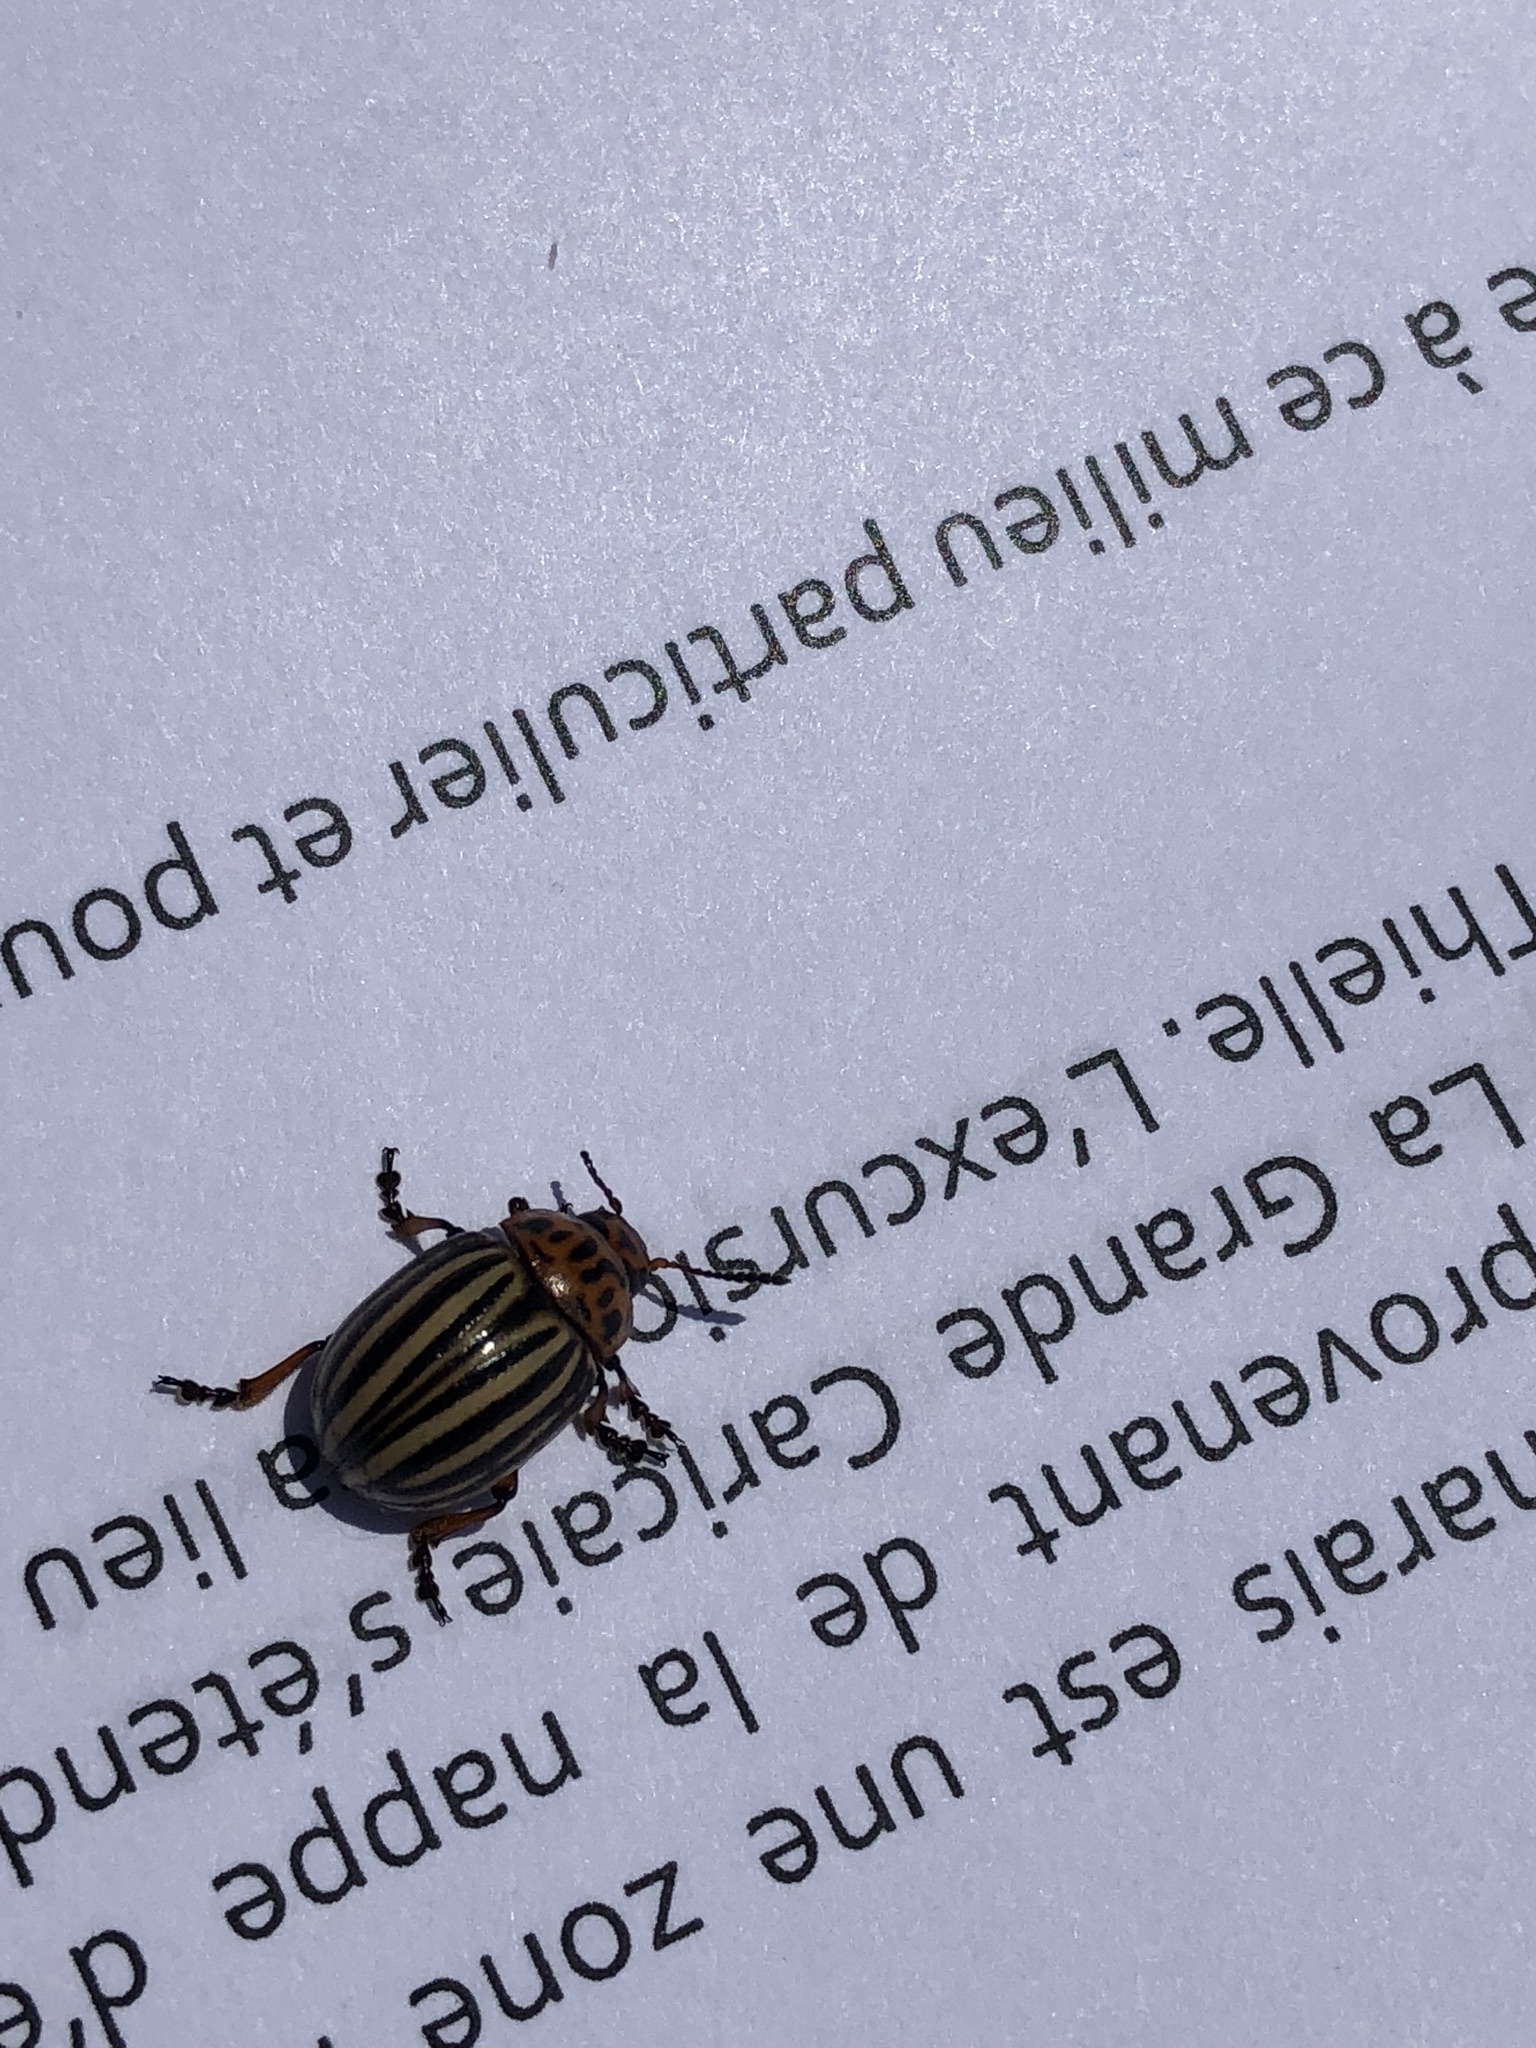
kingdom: Animalia
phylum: Arthropoda
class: Insecta
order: Coleoptera
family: Chrysomelidae
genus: Leptinotarsa
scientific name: Leptinotarsa decemlineata
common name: Colorado potato beetle
